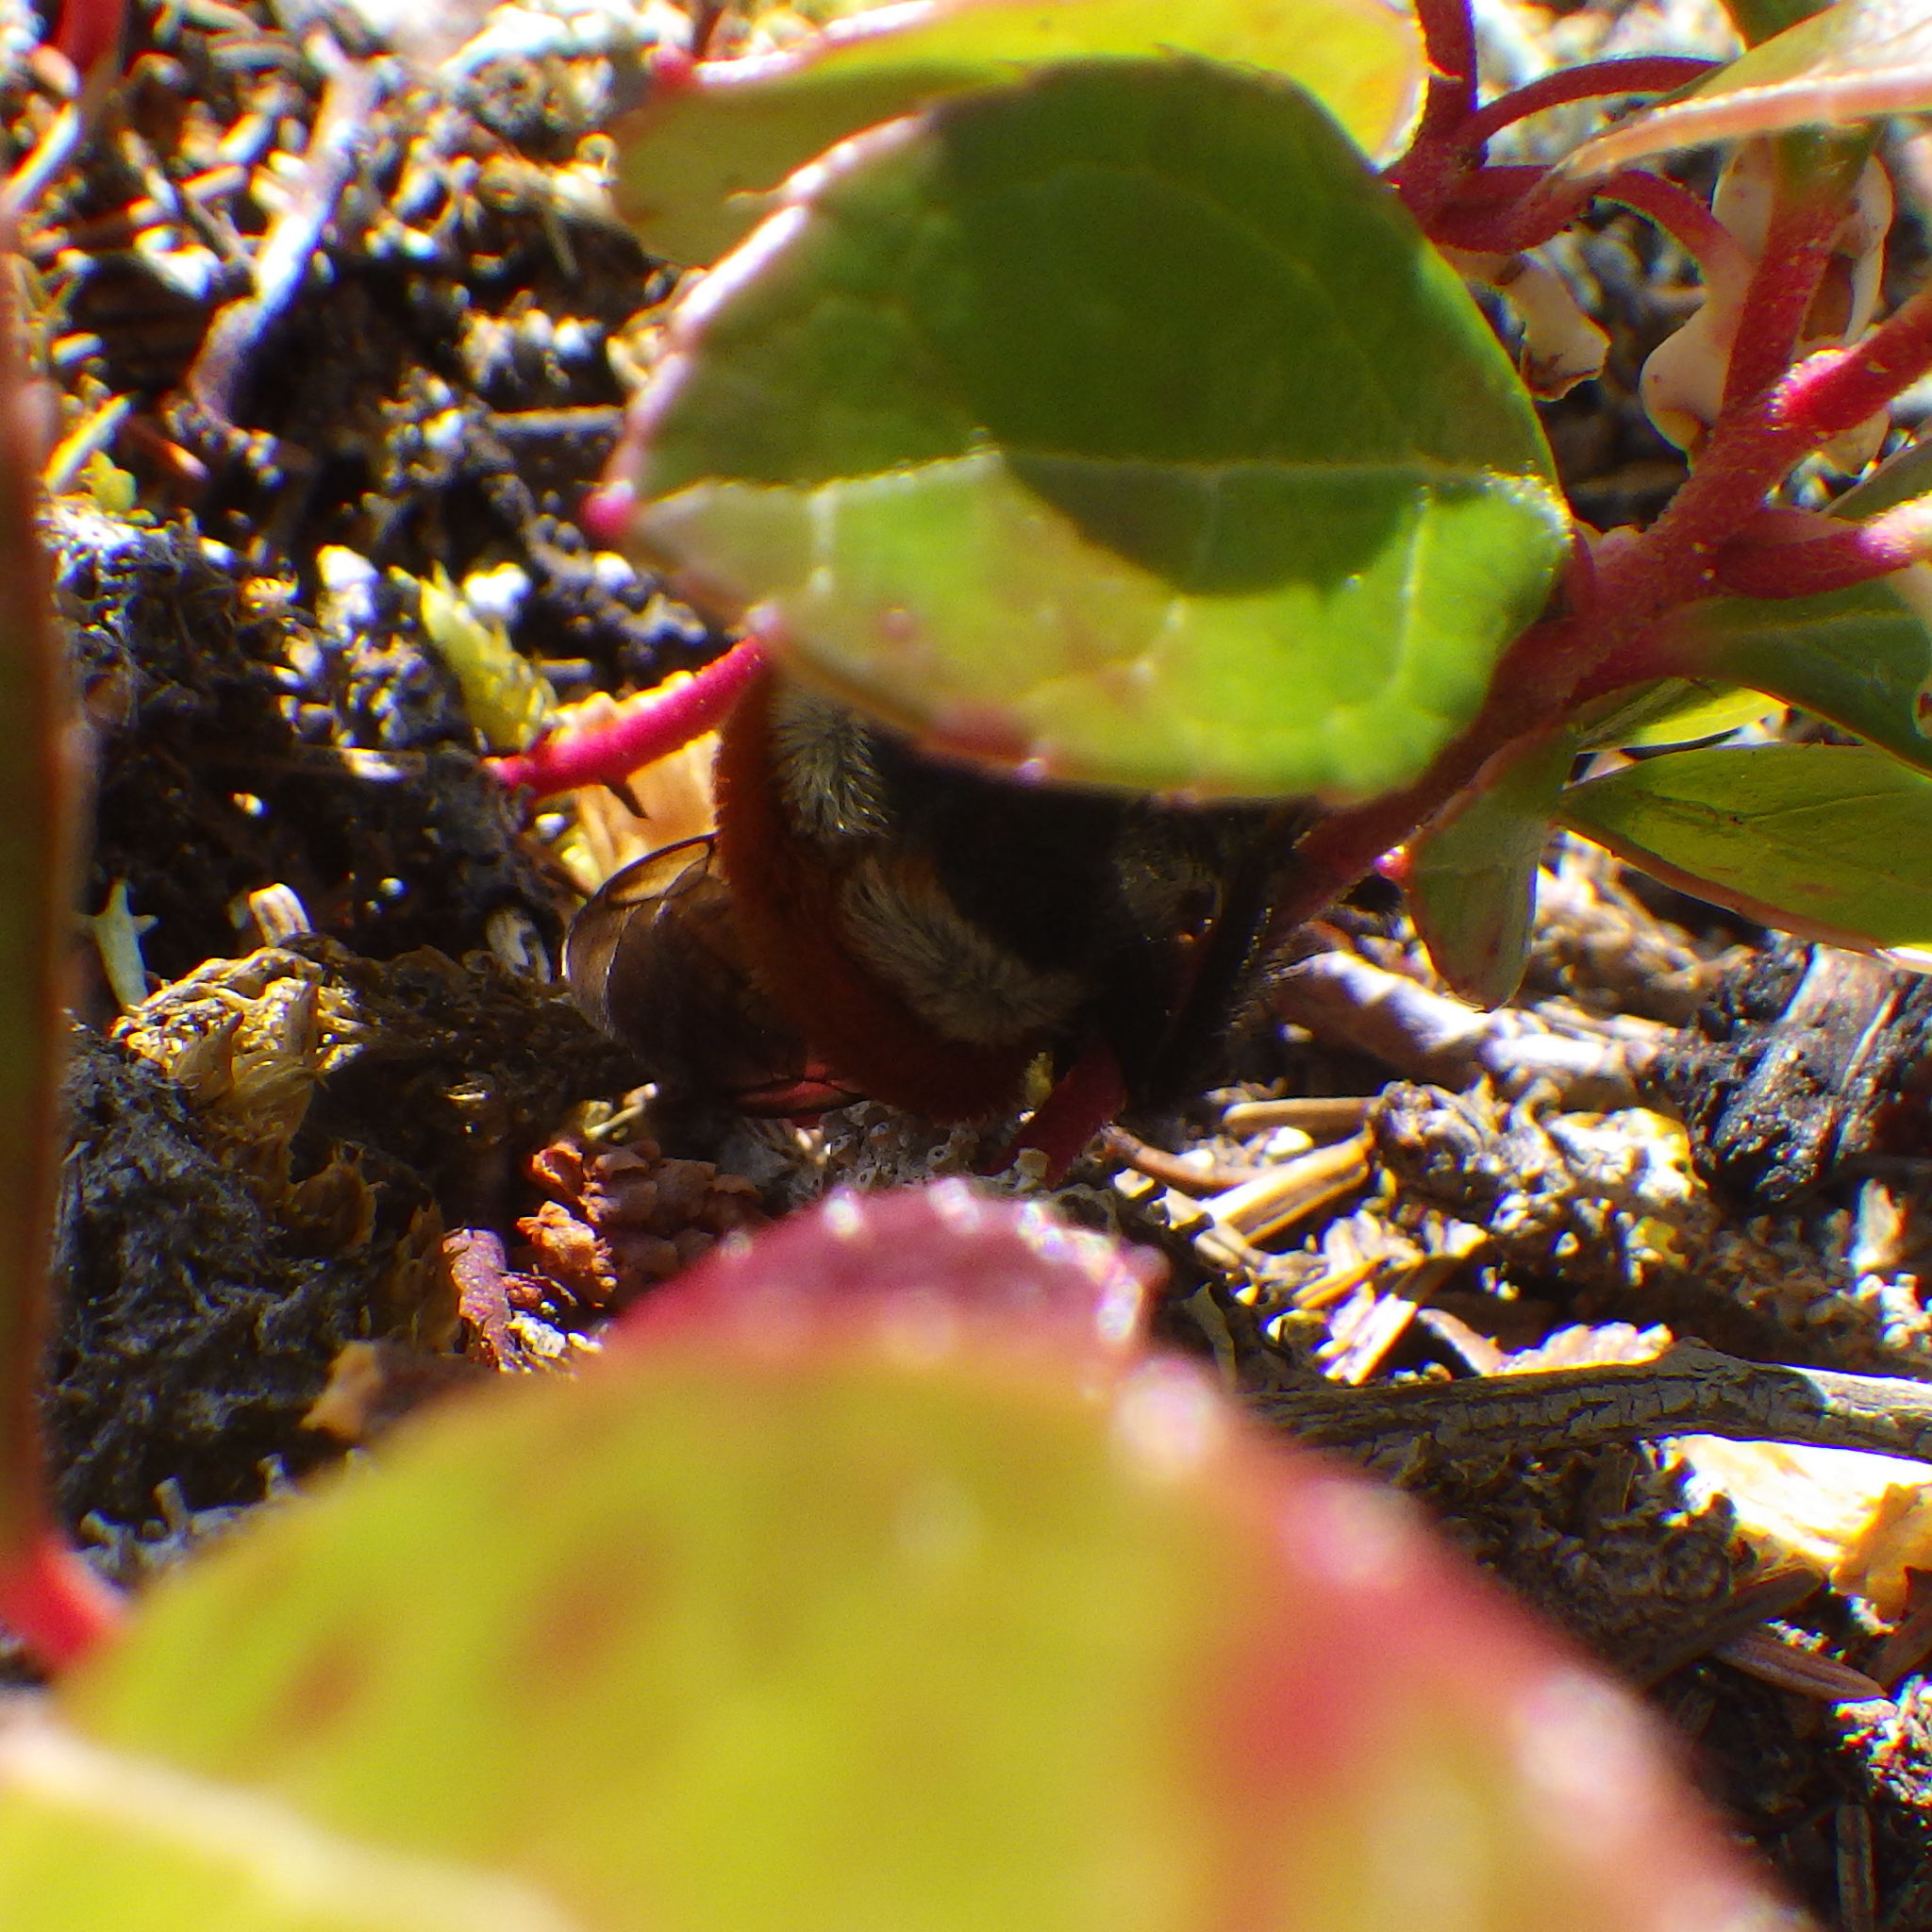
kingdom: Animalia
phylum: Arthropoda
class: Insecta
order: Hymenoptera
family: Apidae
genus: Bombus
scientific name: Bombus ternarius
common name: Tri-colored bumble bee
